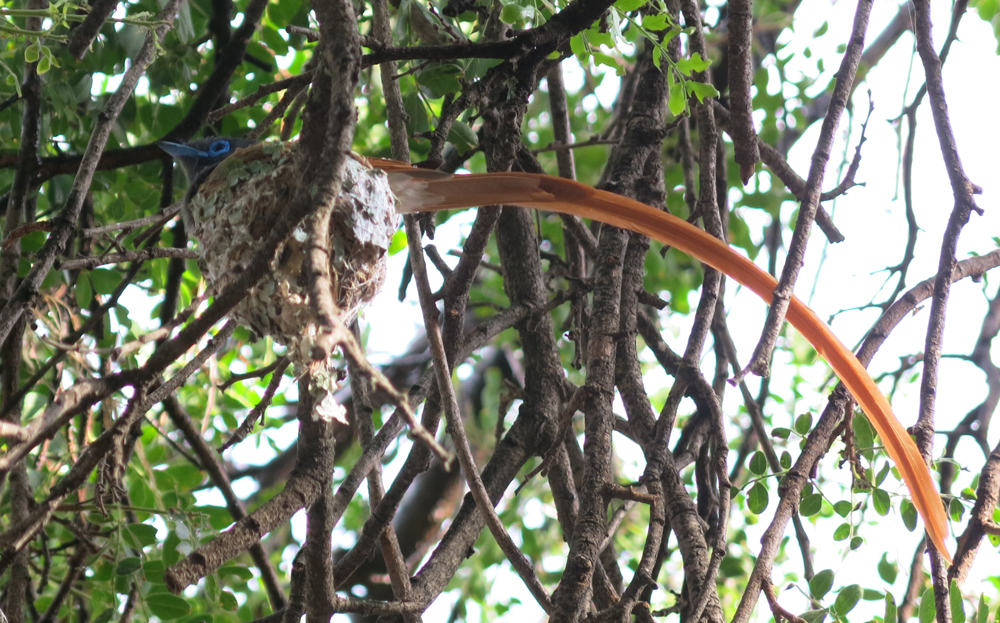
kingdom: Animalia
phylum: Chordata
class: Aves
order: Passeriformes
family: Monarchidae
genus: Terpsiphone
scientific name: Terpsiphone viridis
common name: African paradise flycatcher
